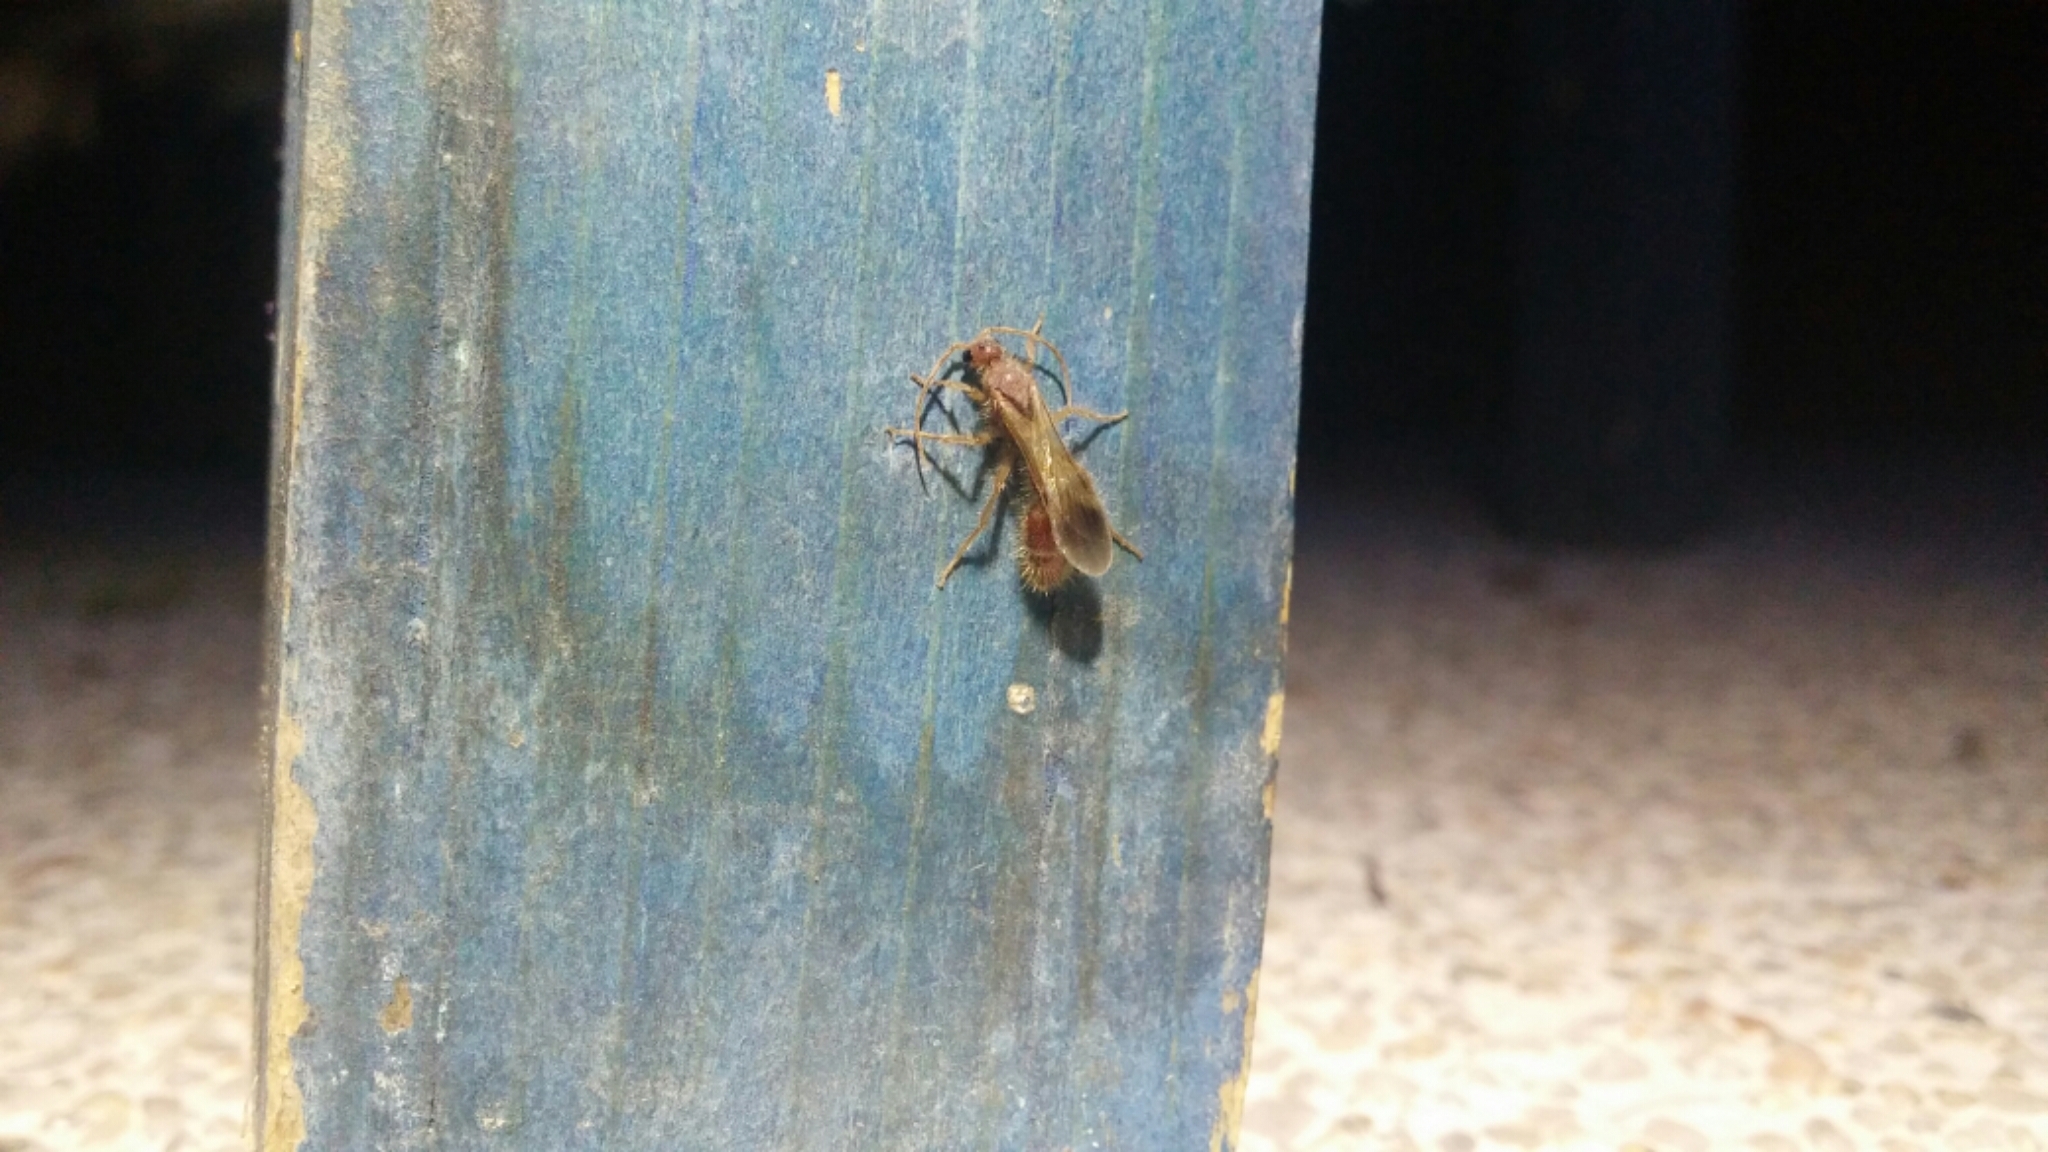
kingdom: Animalia
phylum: Arthropoda
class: Insecta
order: Hymenoptera
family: Chyphotidae
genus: Chyphotes
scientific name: Chyphotes
